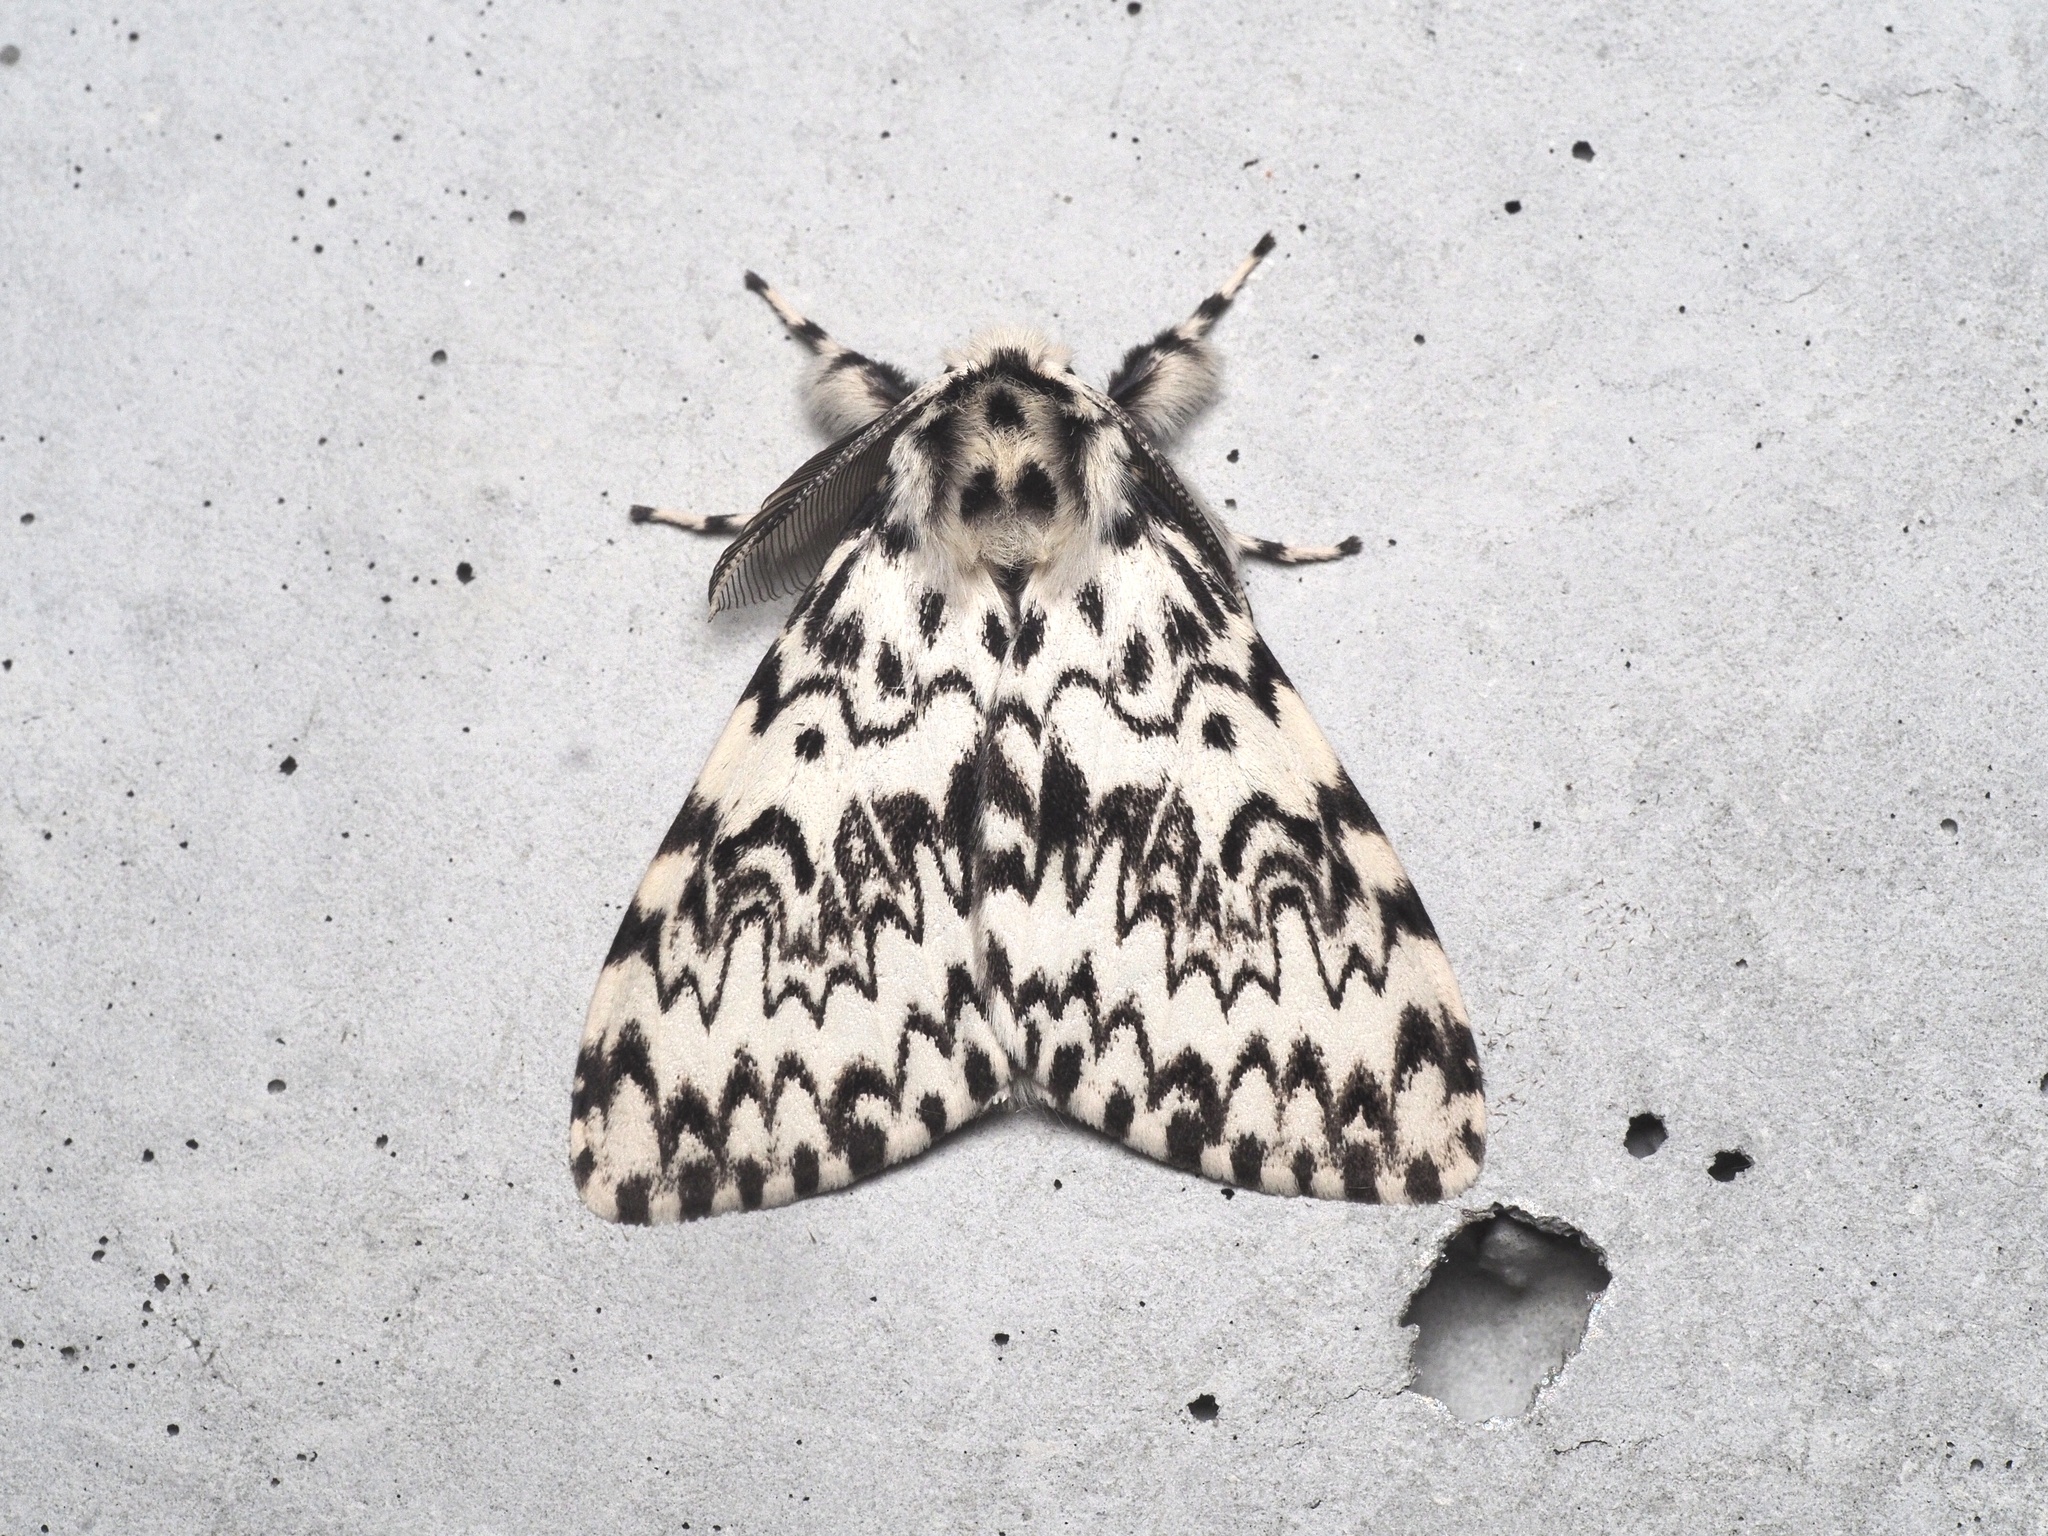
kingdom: Animalia
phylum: Arthropoda
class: Insecta
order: Lepidoptera
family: Erebidae
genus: Lymantria
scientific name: Lymantria monacha
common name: Black arches
